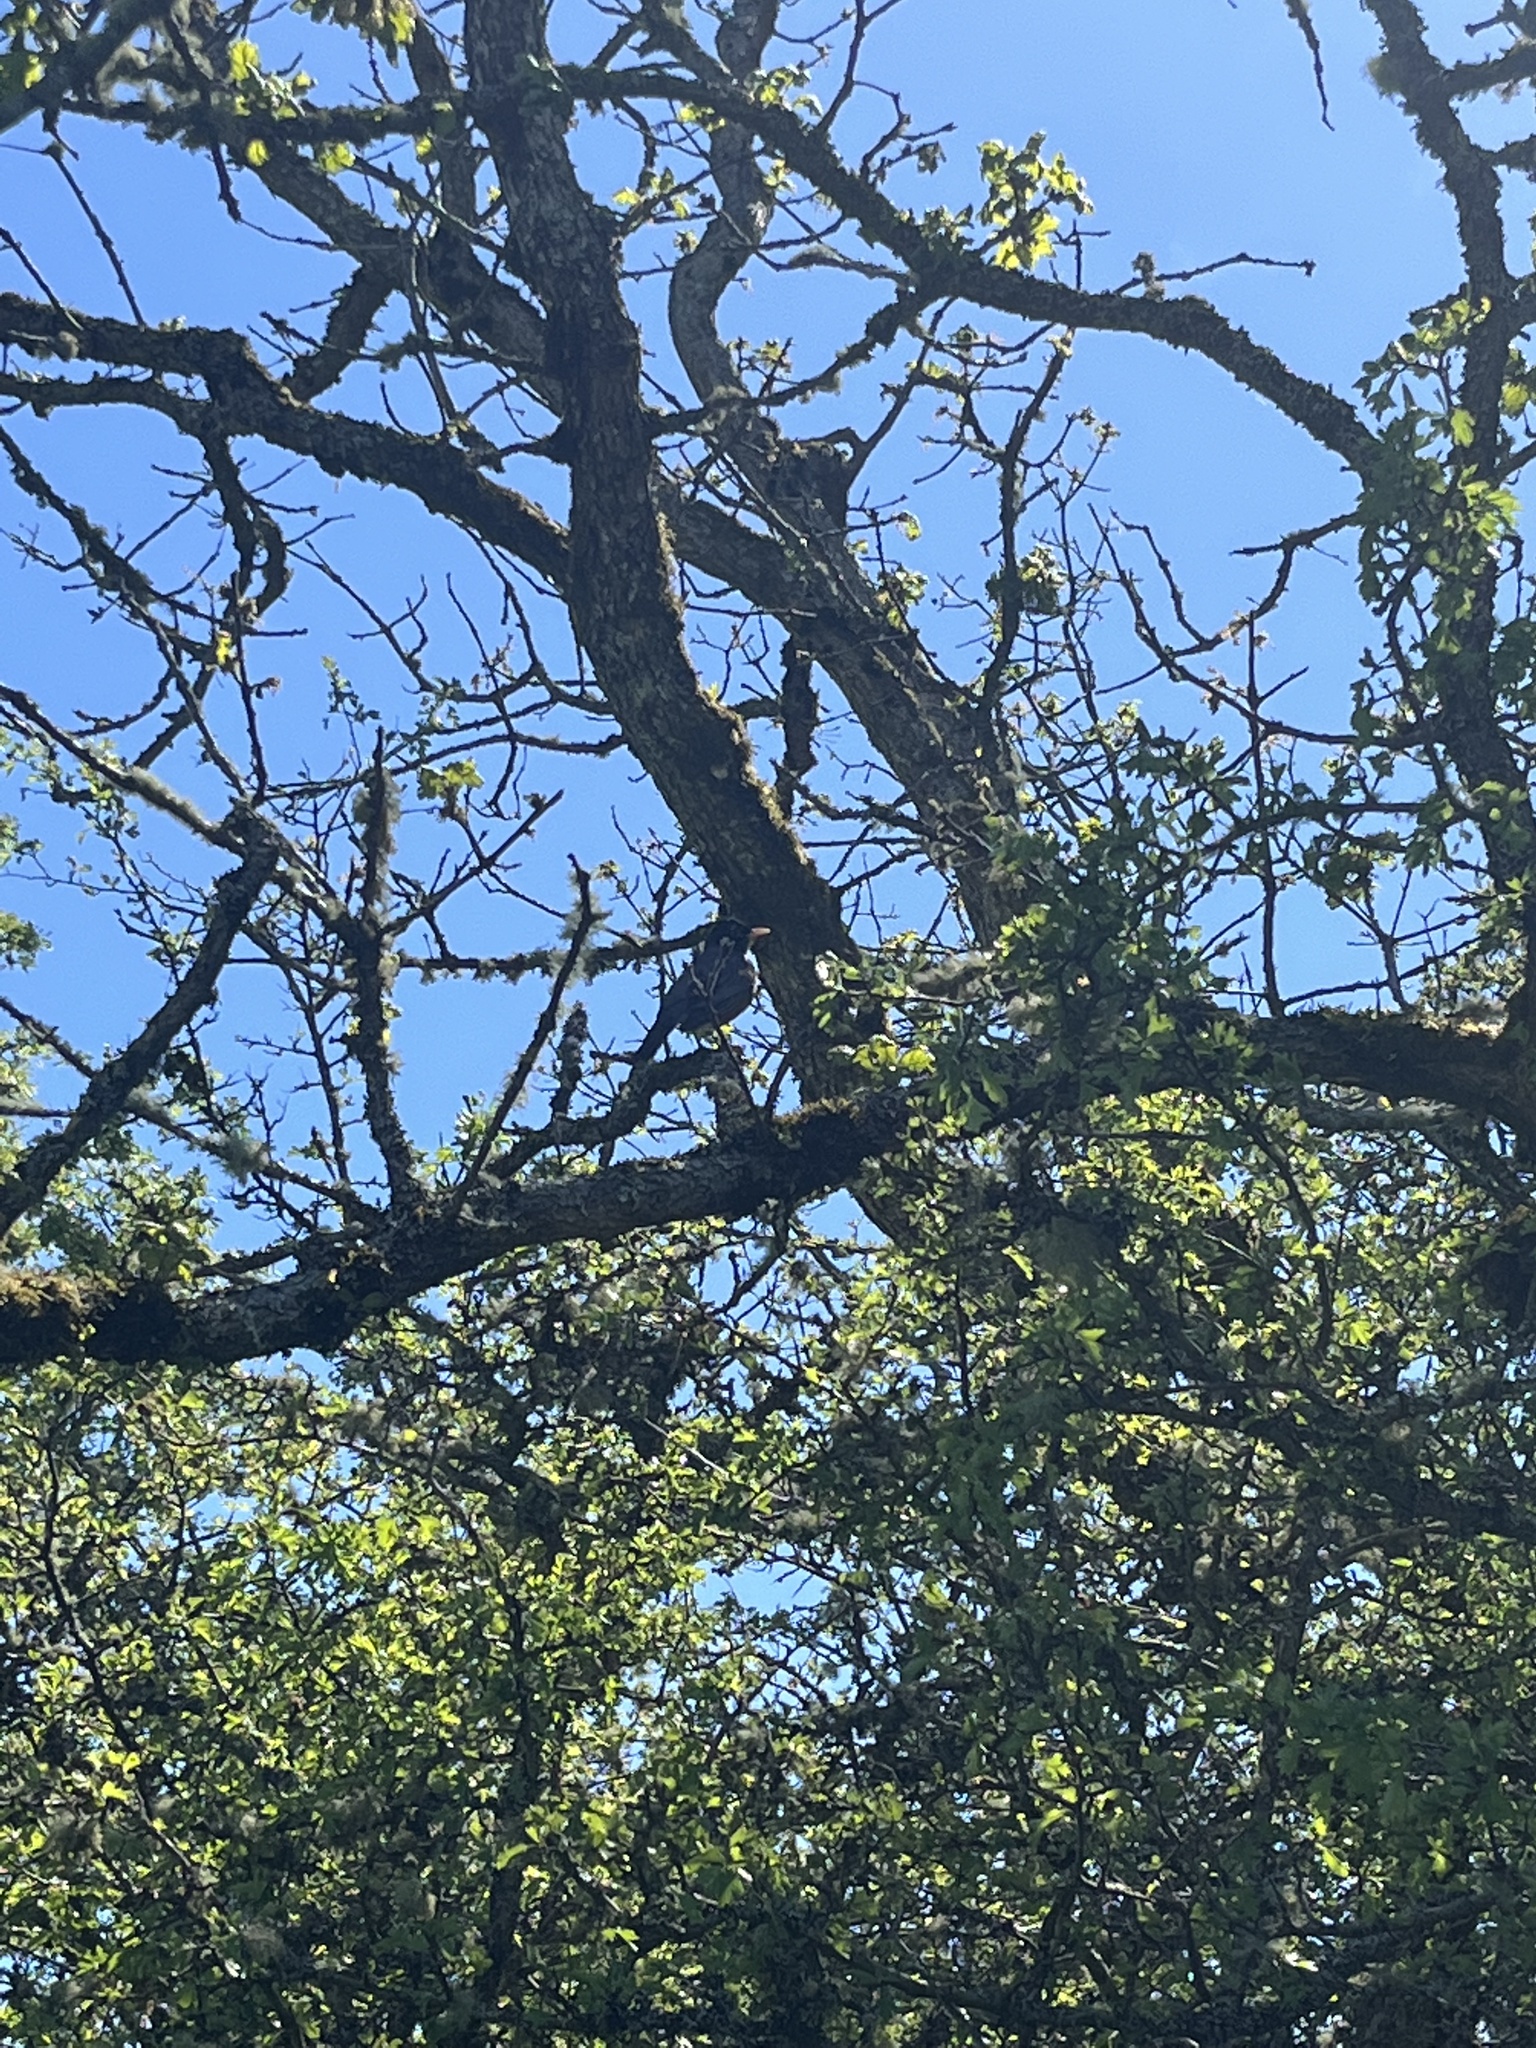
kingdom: Animalia
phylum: Chordata
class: Aves
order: Passeriformes
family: Turdidae
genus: Turdus
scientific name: Turdus migratorius
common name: American robin
